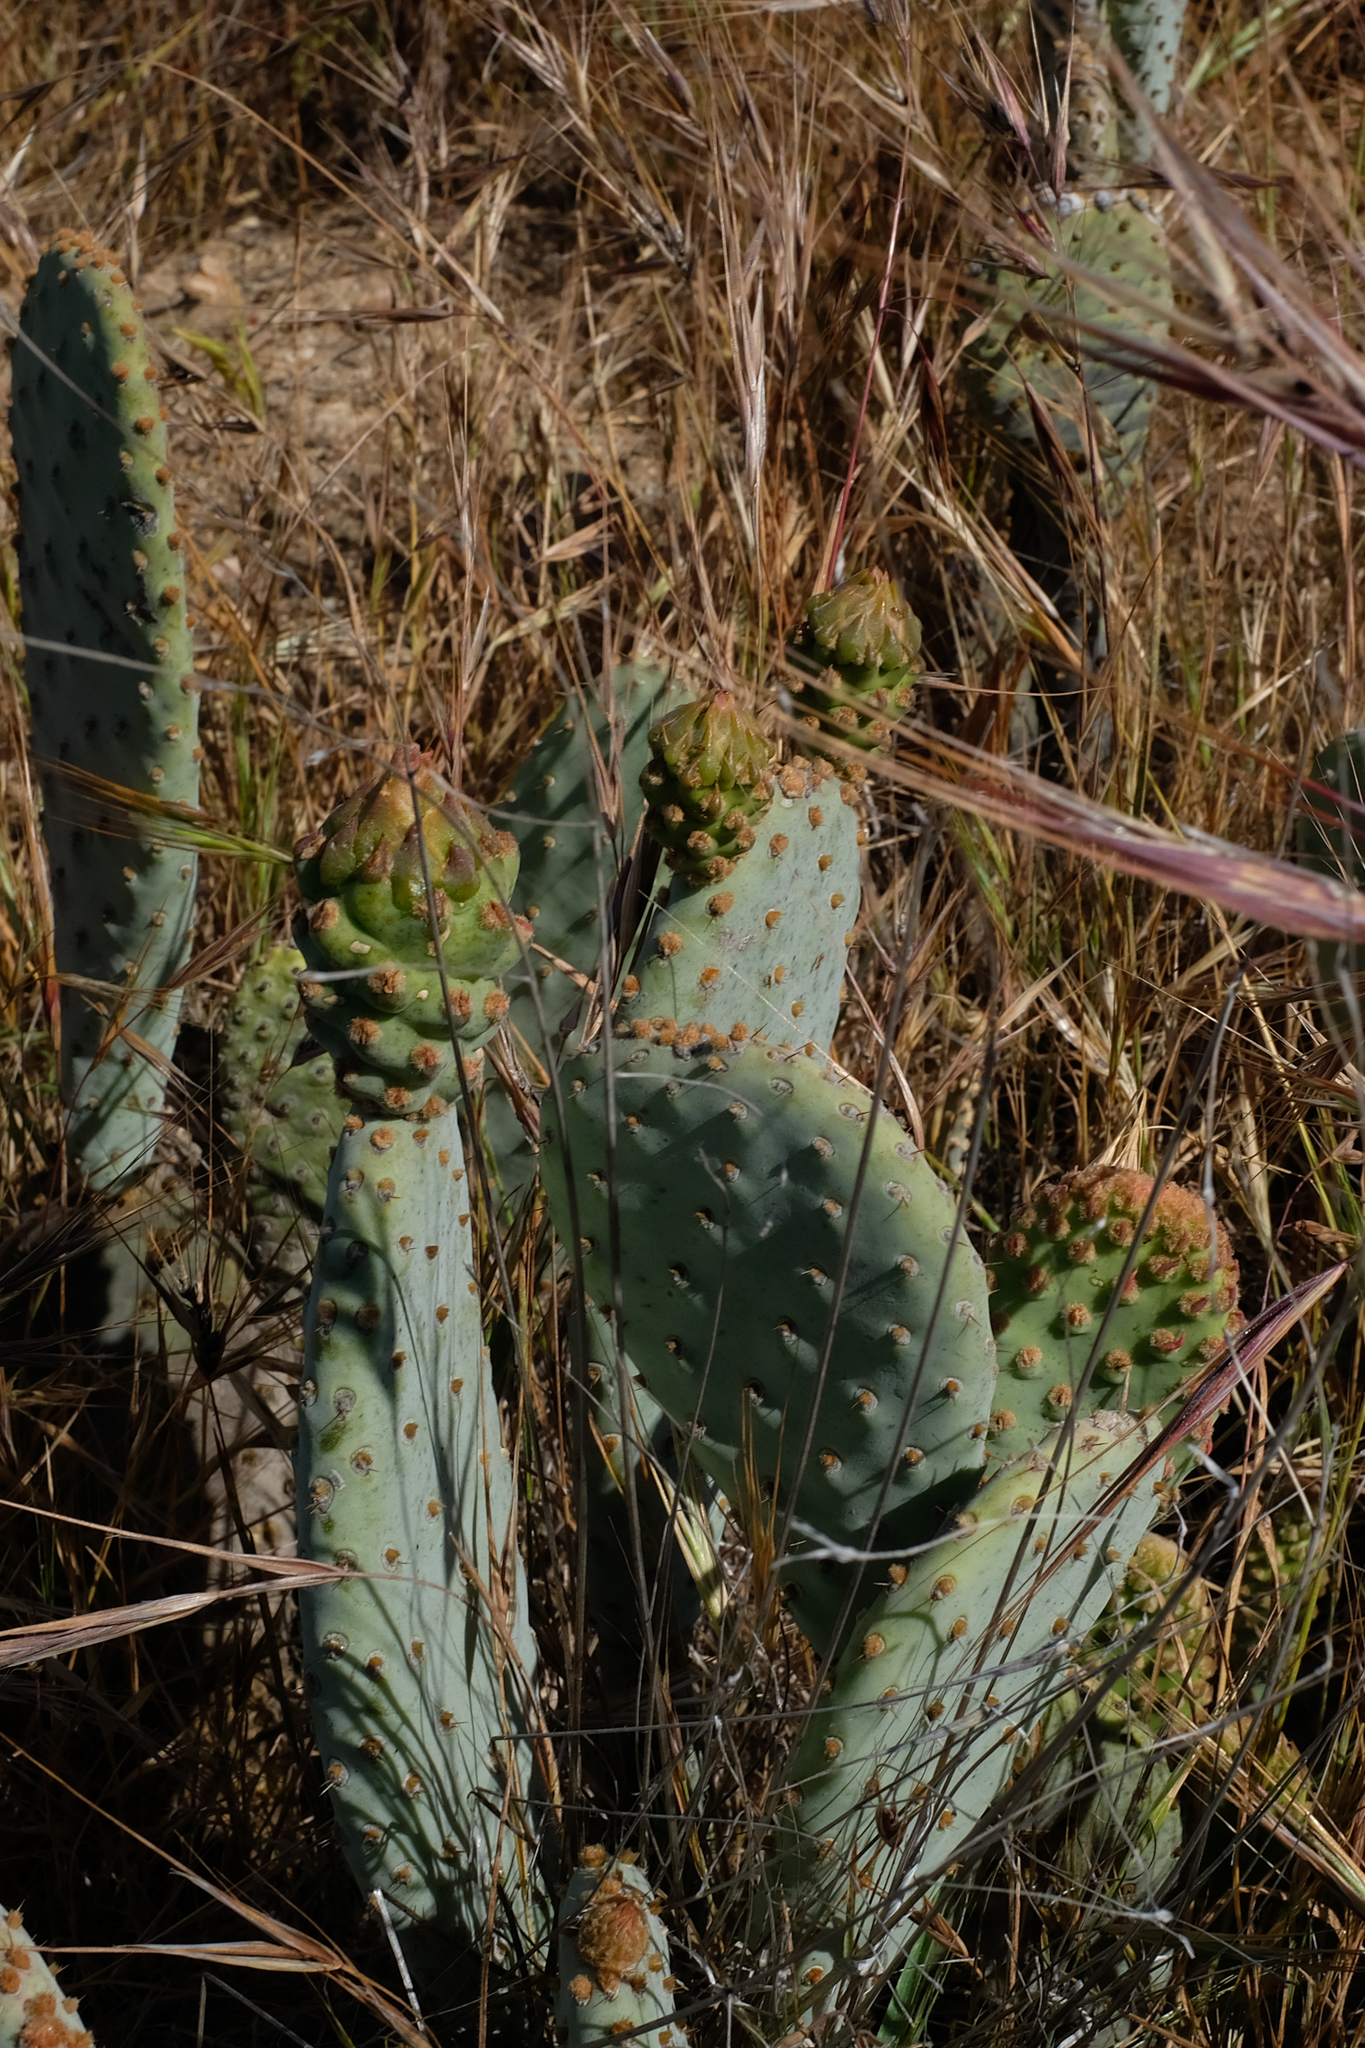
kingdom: Plantae
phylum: Tracheophyta
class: Magnoliopsida
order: Caryophyllales
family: Cactaceae
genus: Opuntia
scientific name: Opuntia basilaris
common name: Beavertail prickly-pear
